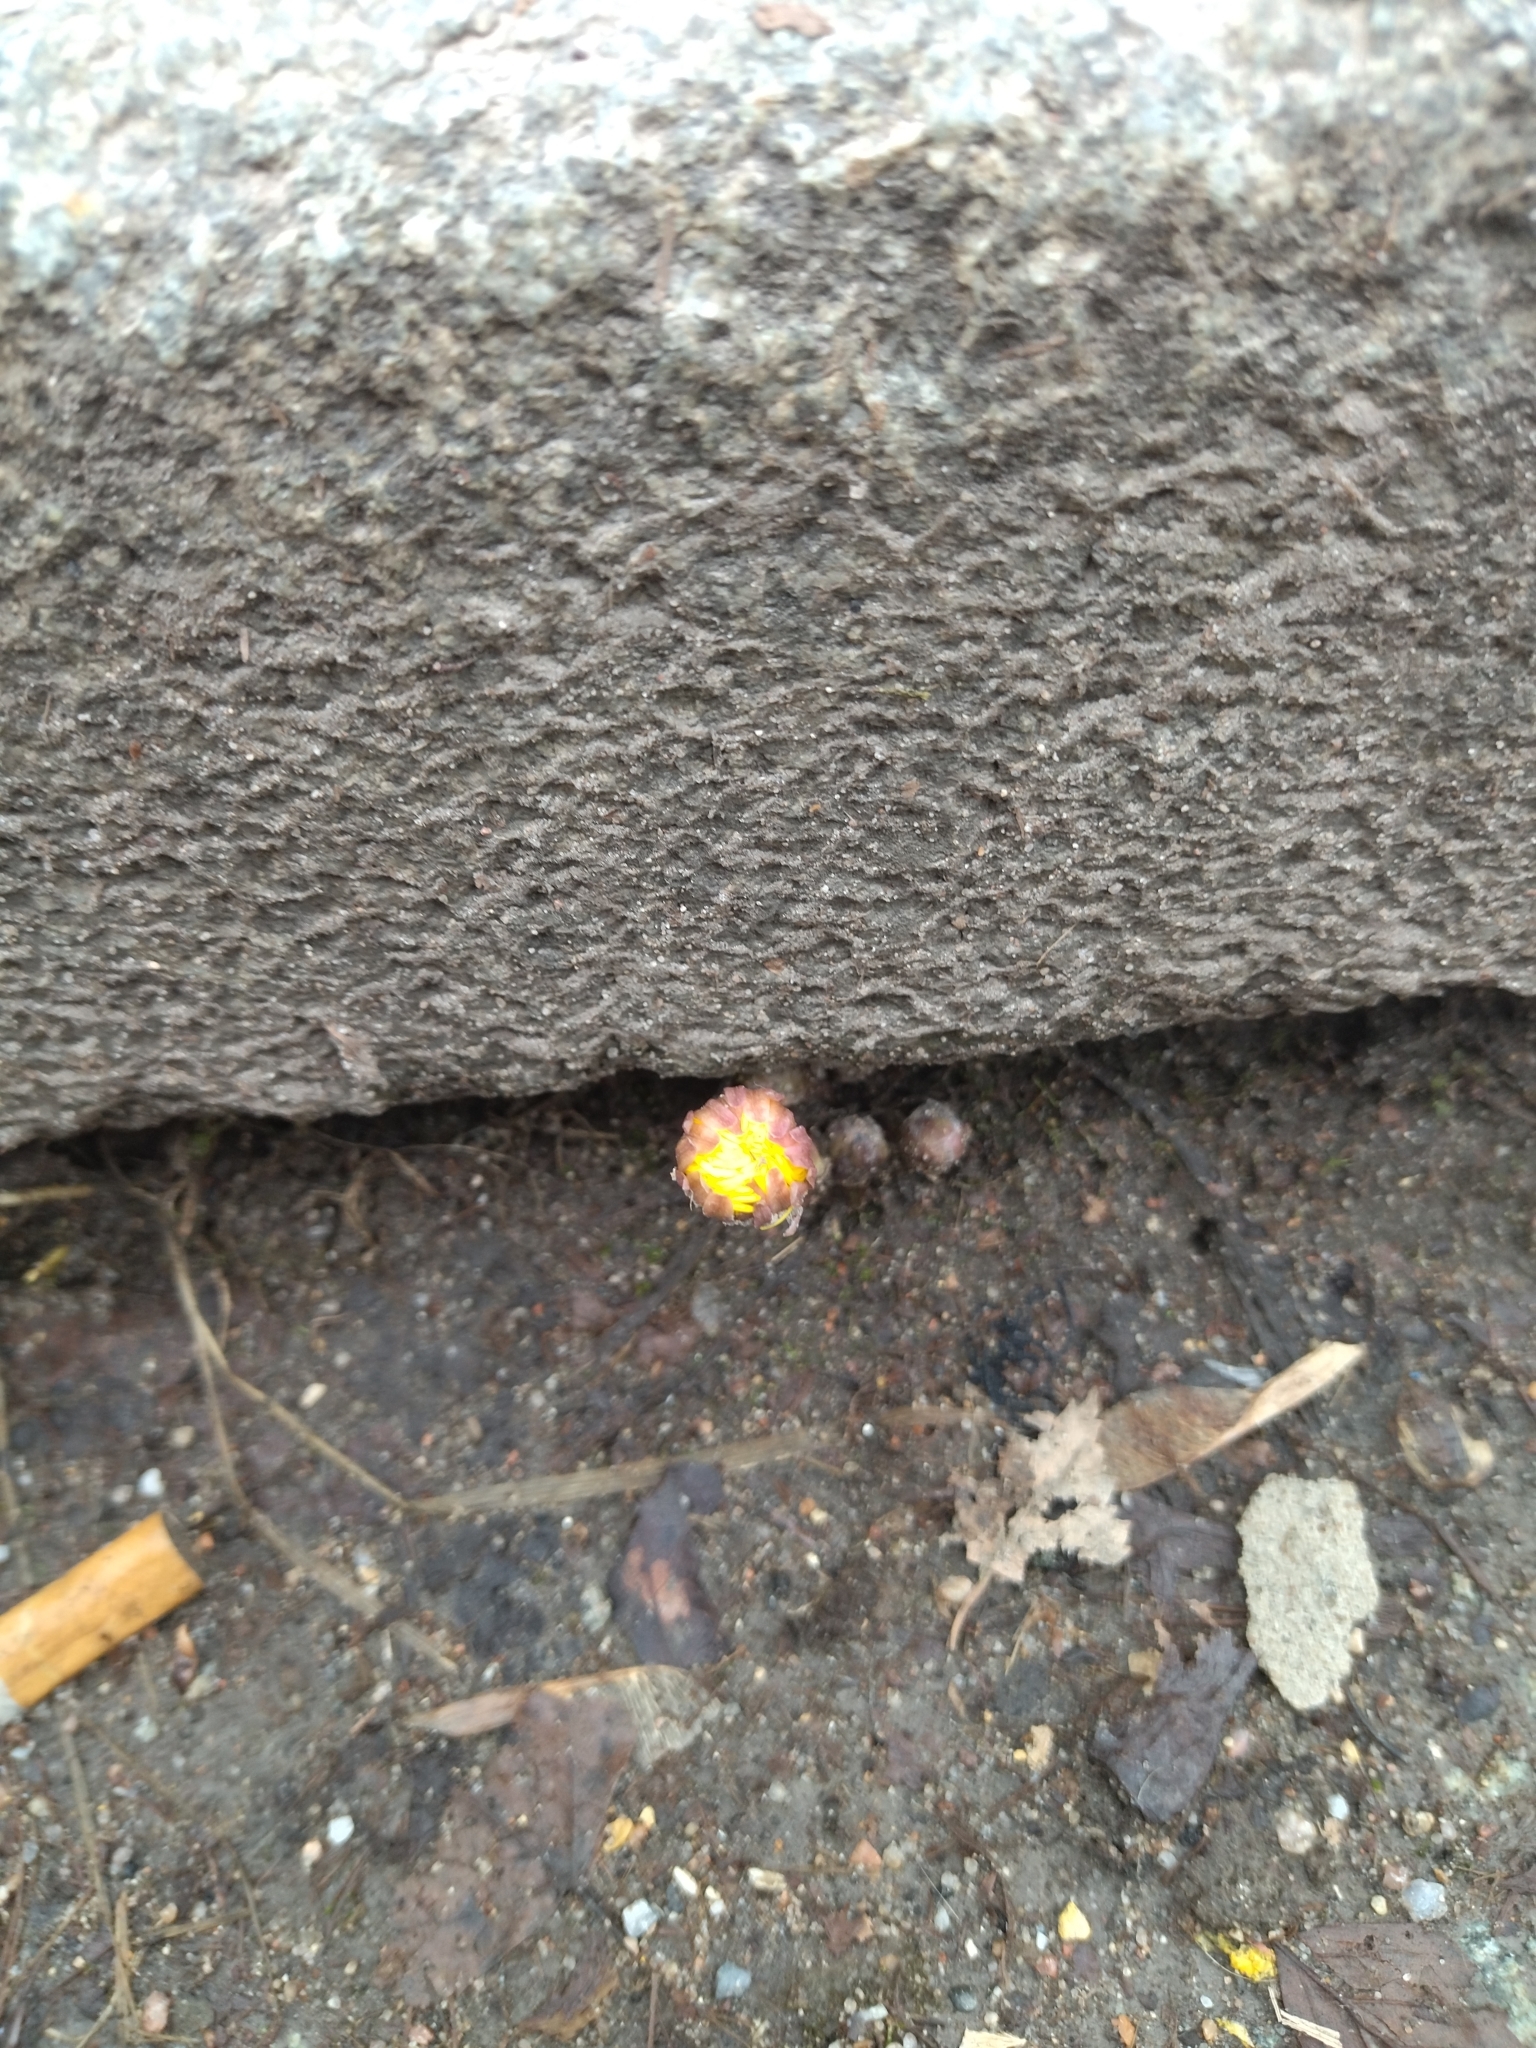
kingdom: Plantae
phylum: Tracheophyta
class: Magnoliopsida
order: Asterales
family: Asteraceae
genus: Tussilago
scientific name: Tussilago farfara
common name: Coltsfoot
